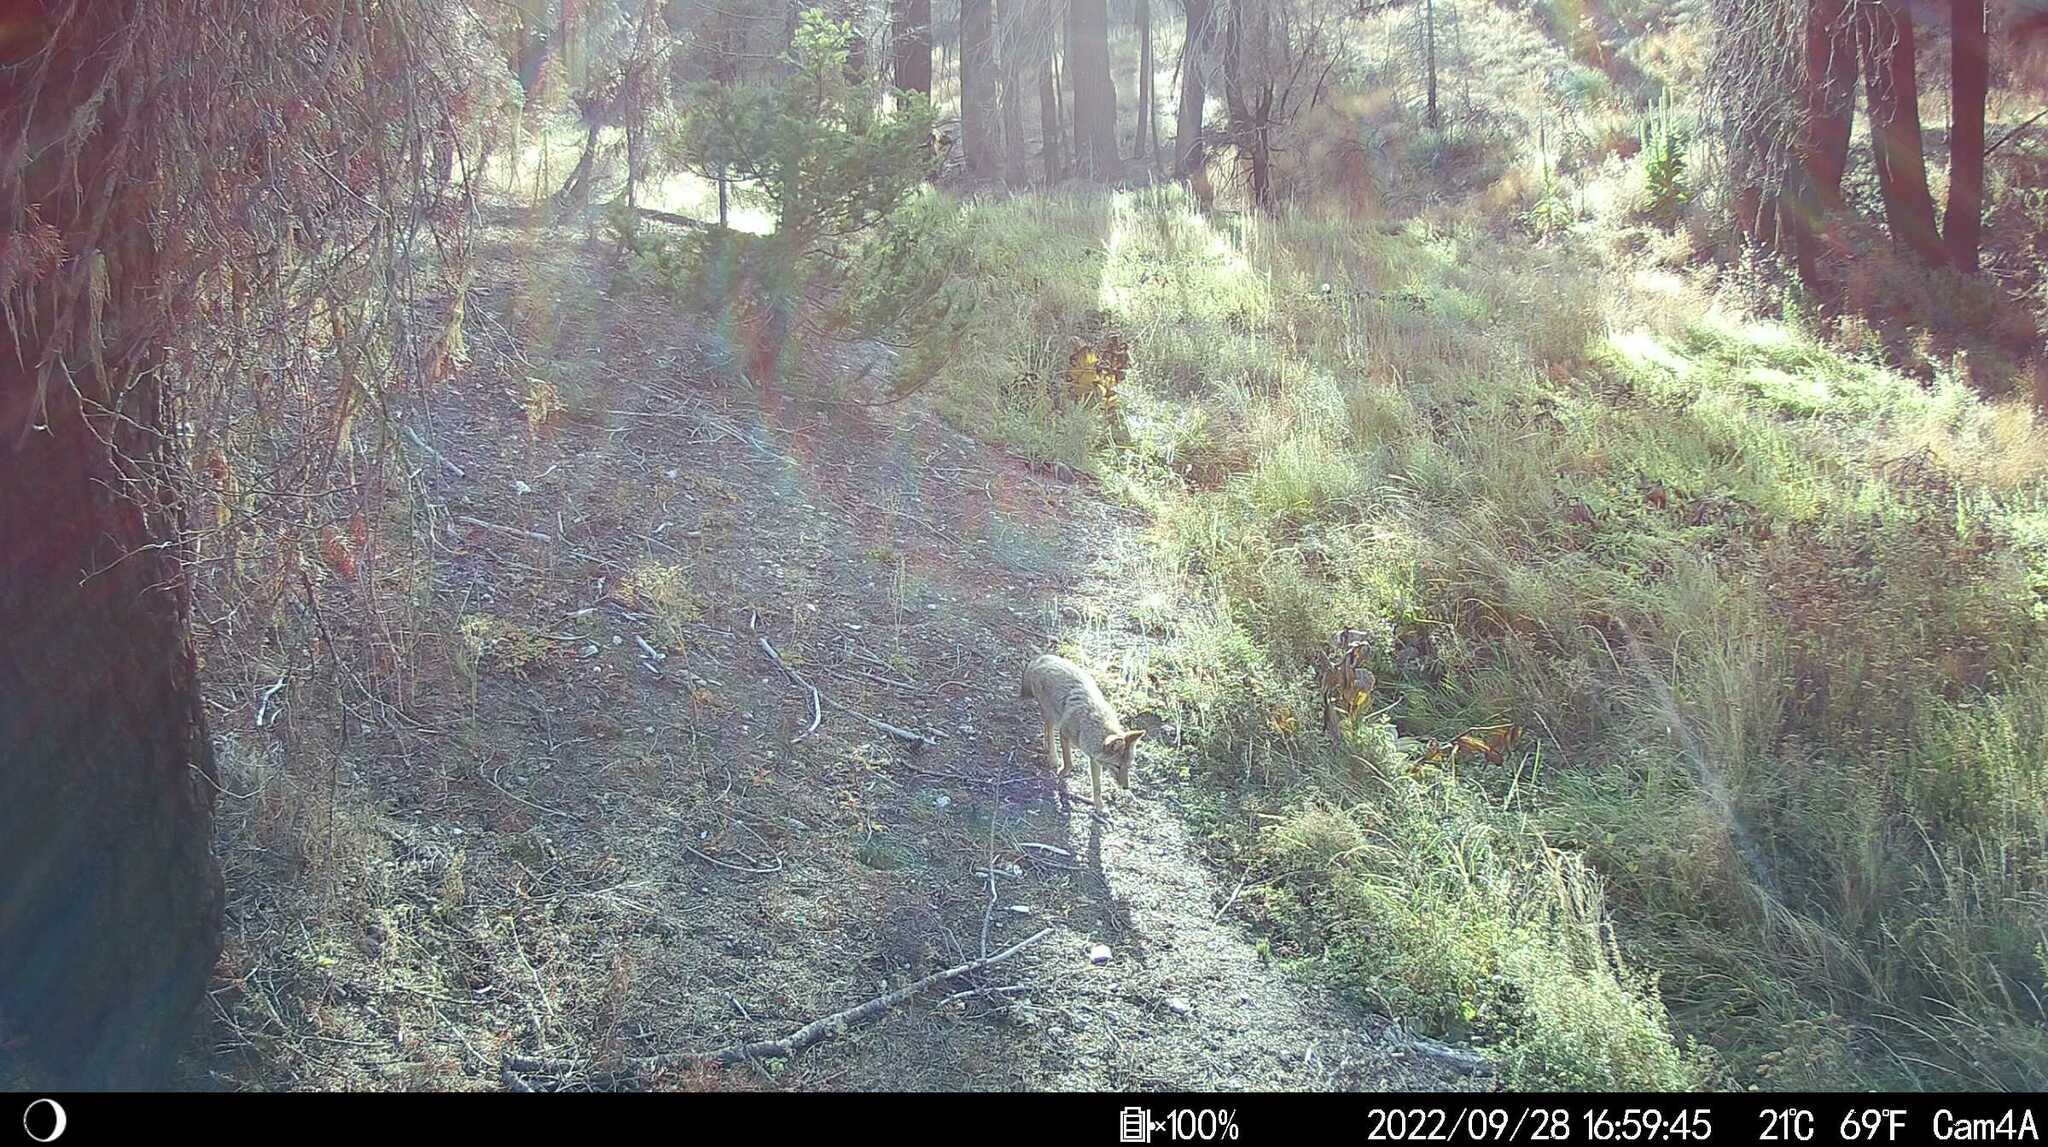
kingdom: Animalia
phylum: Chordata
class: Mammalia
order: Carnivora
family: Canidae
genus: Canis
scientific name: Canis latrans
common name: Coyote
